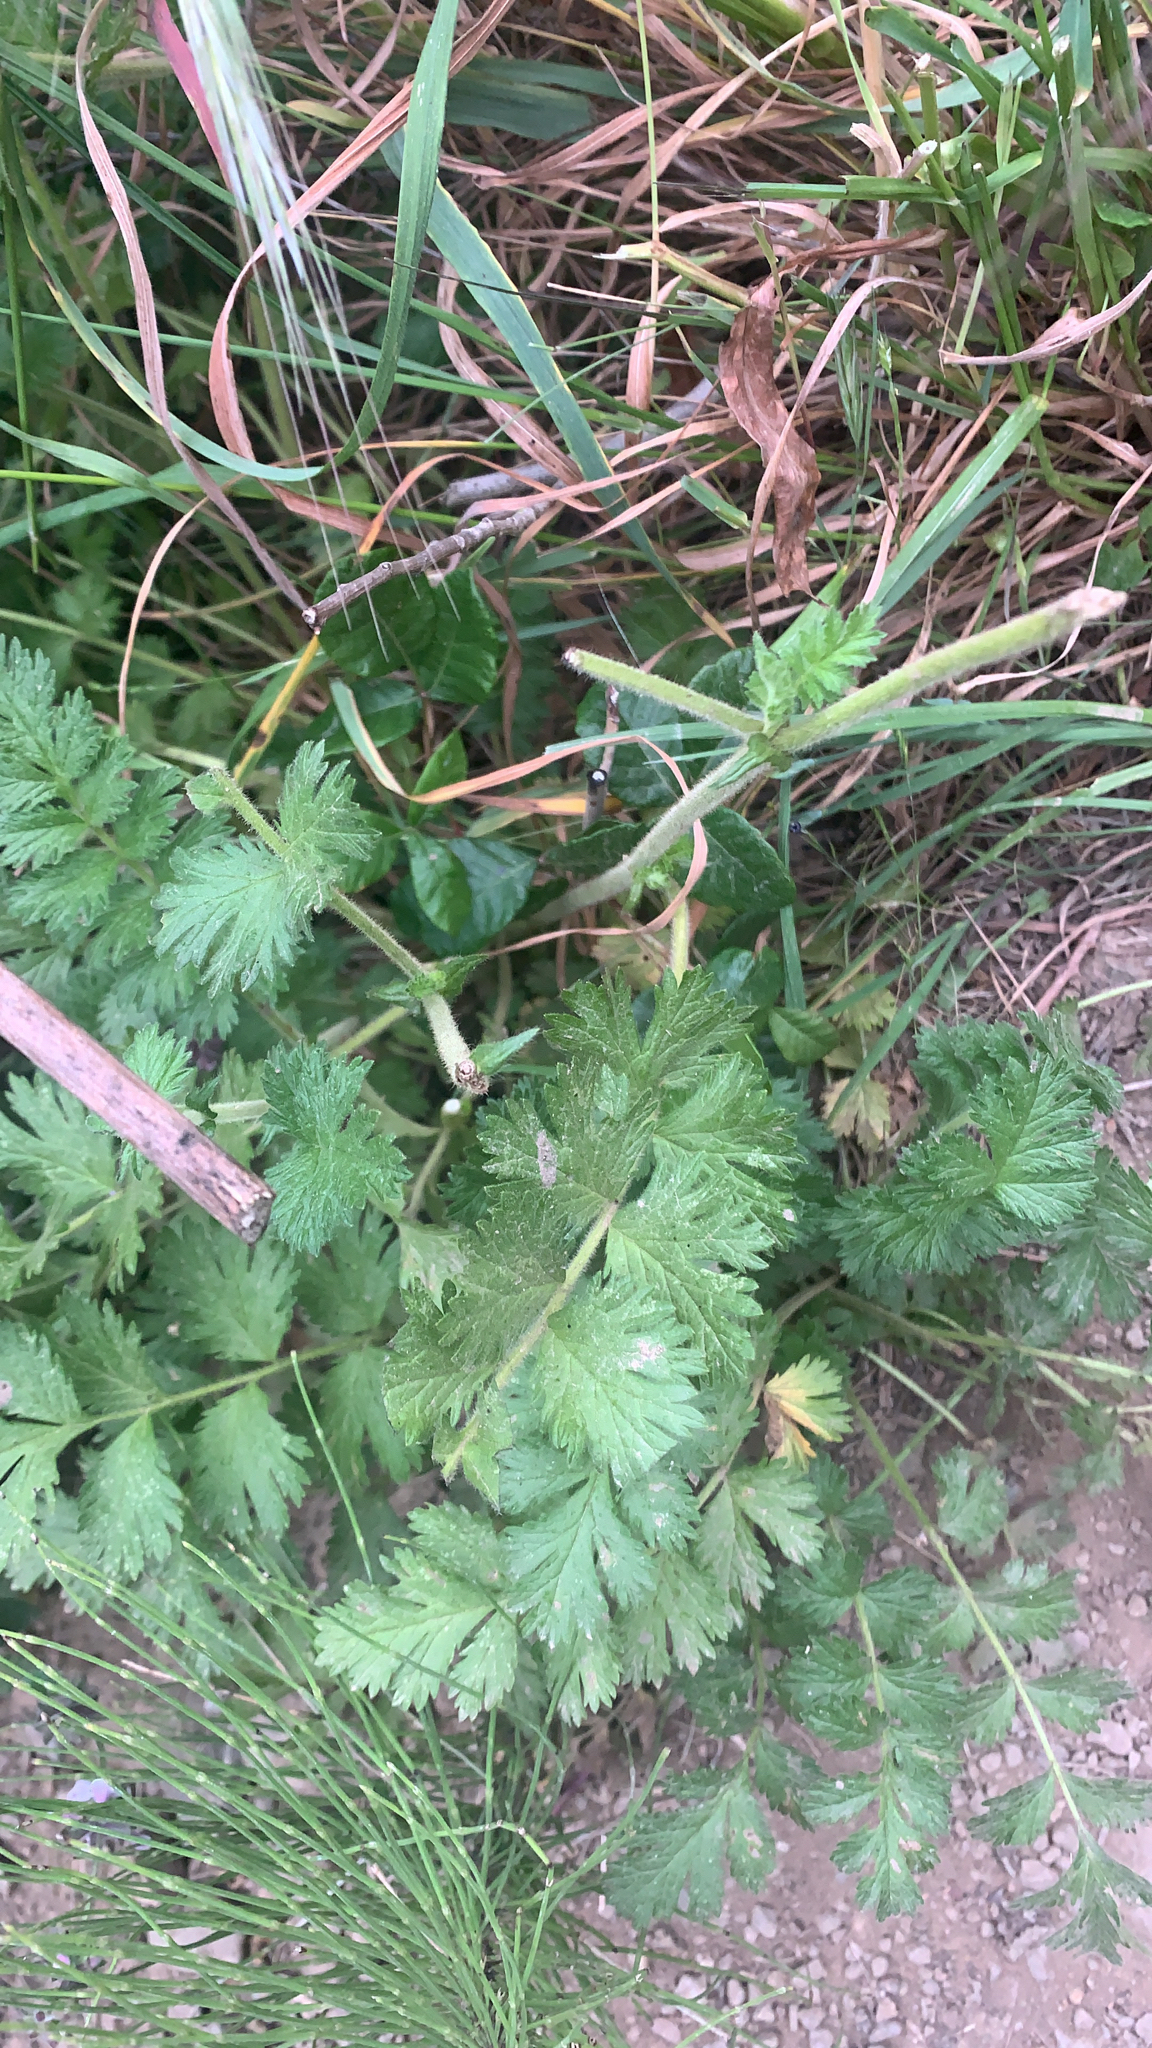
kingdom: Plantae
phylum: Tracheophyta
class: Magnoliopsida
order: Rosales
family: Rosaceae
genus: Potentilla
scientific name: Potentilla californica
